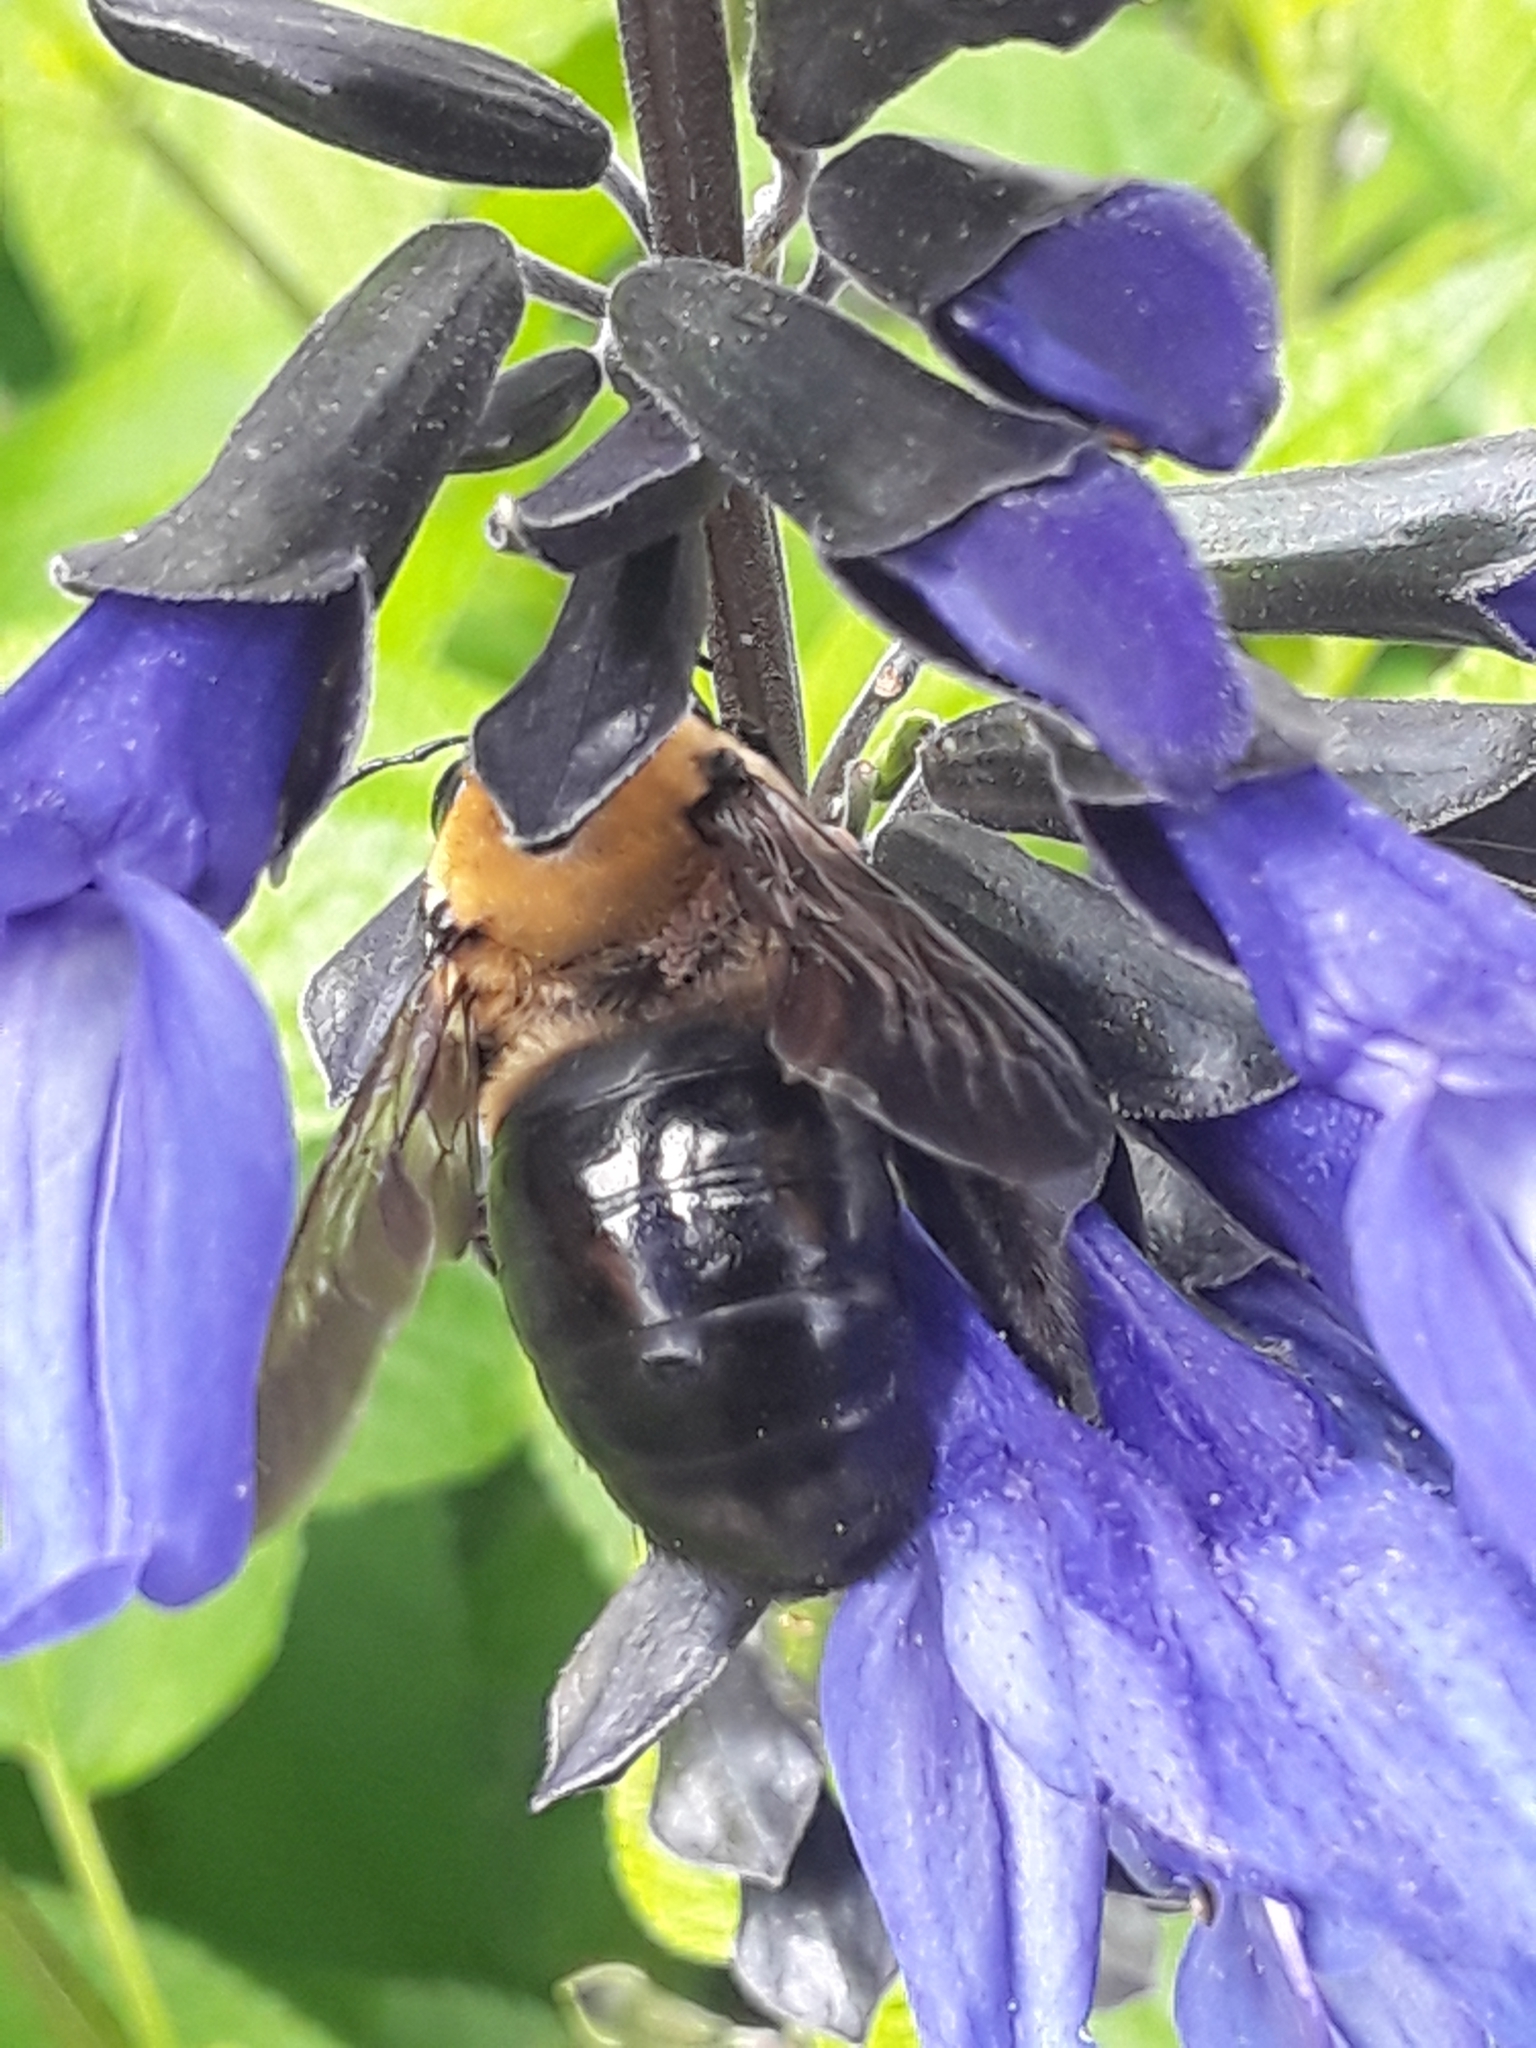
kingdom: Animalia
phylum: Arthropoda
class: Insecta
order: Hymenoptera
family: Apidae
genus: Xylocopa
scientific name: Xylocopa virginica
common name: Carpenter bee
